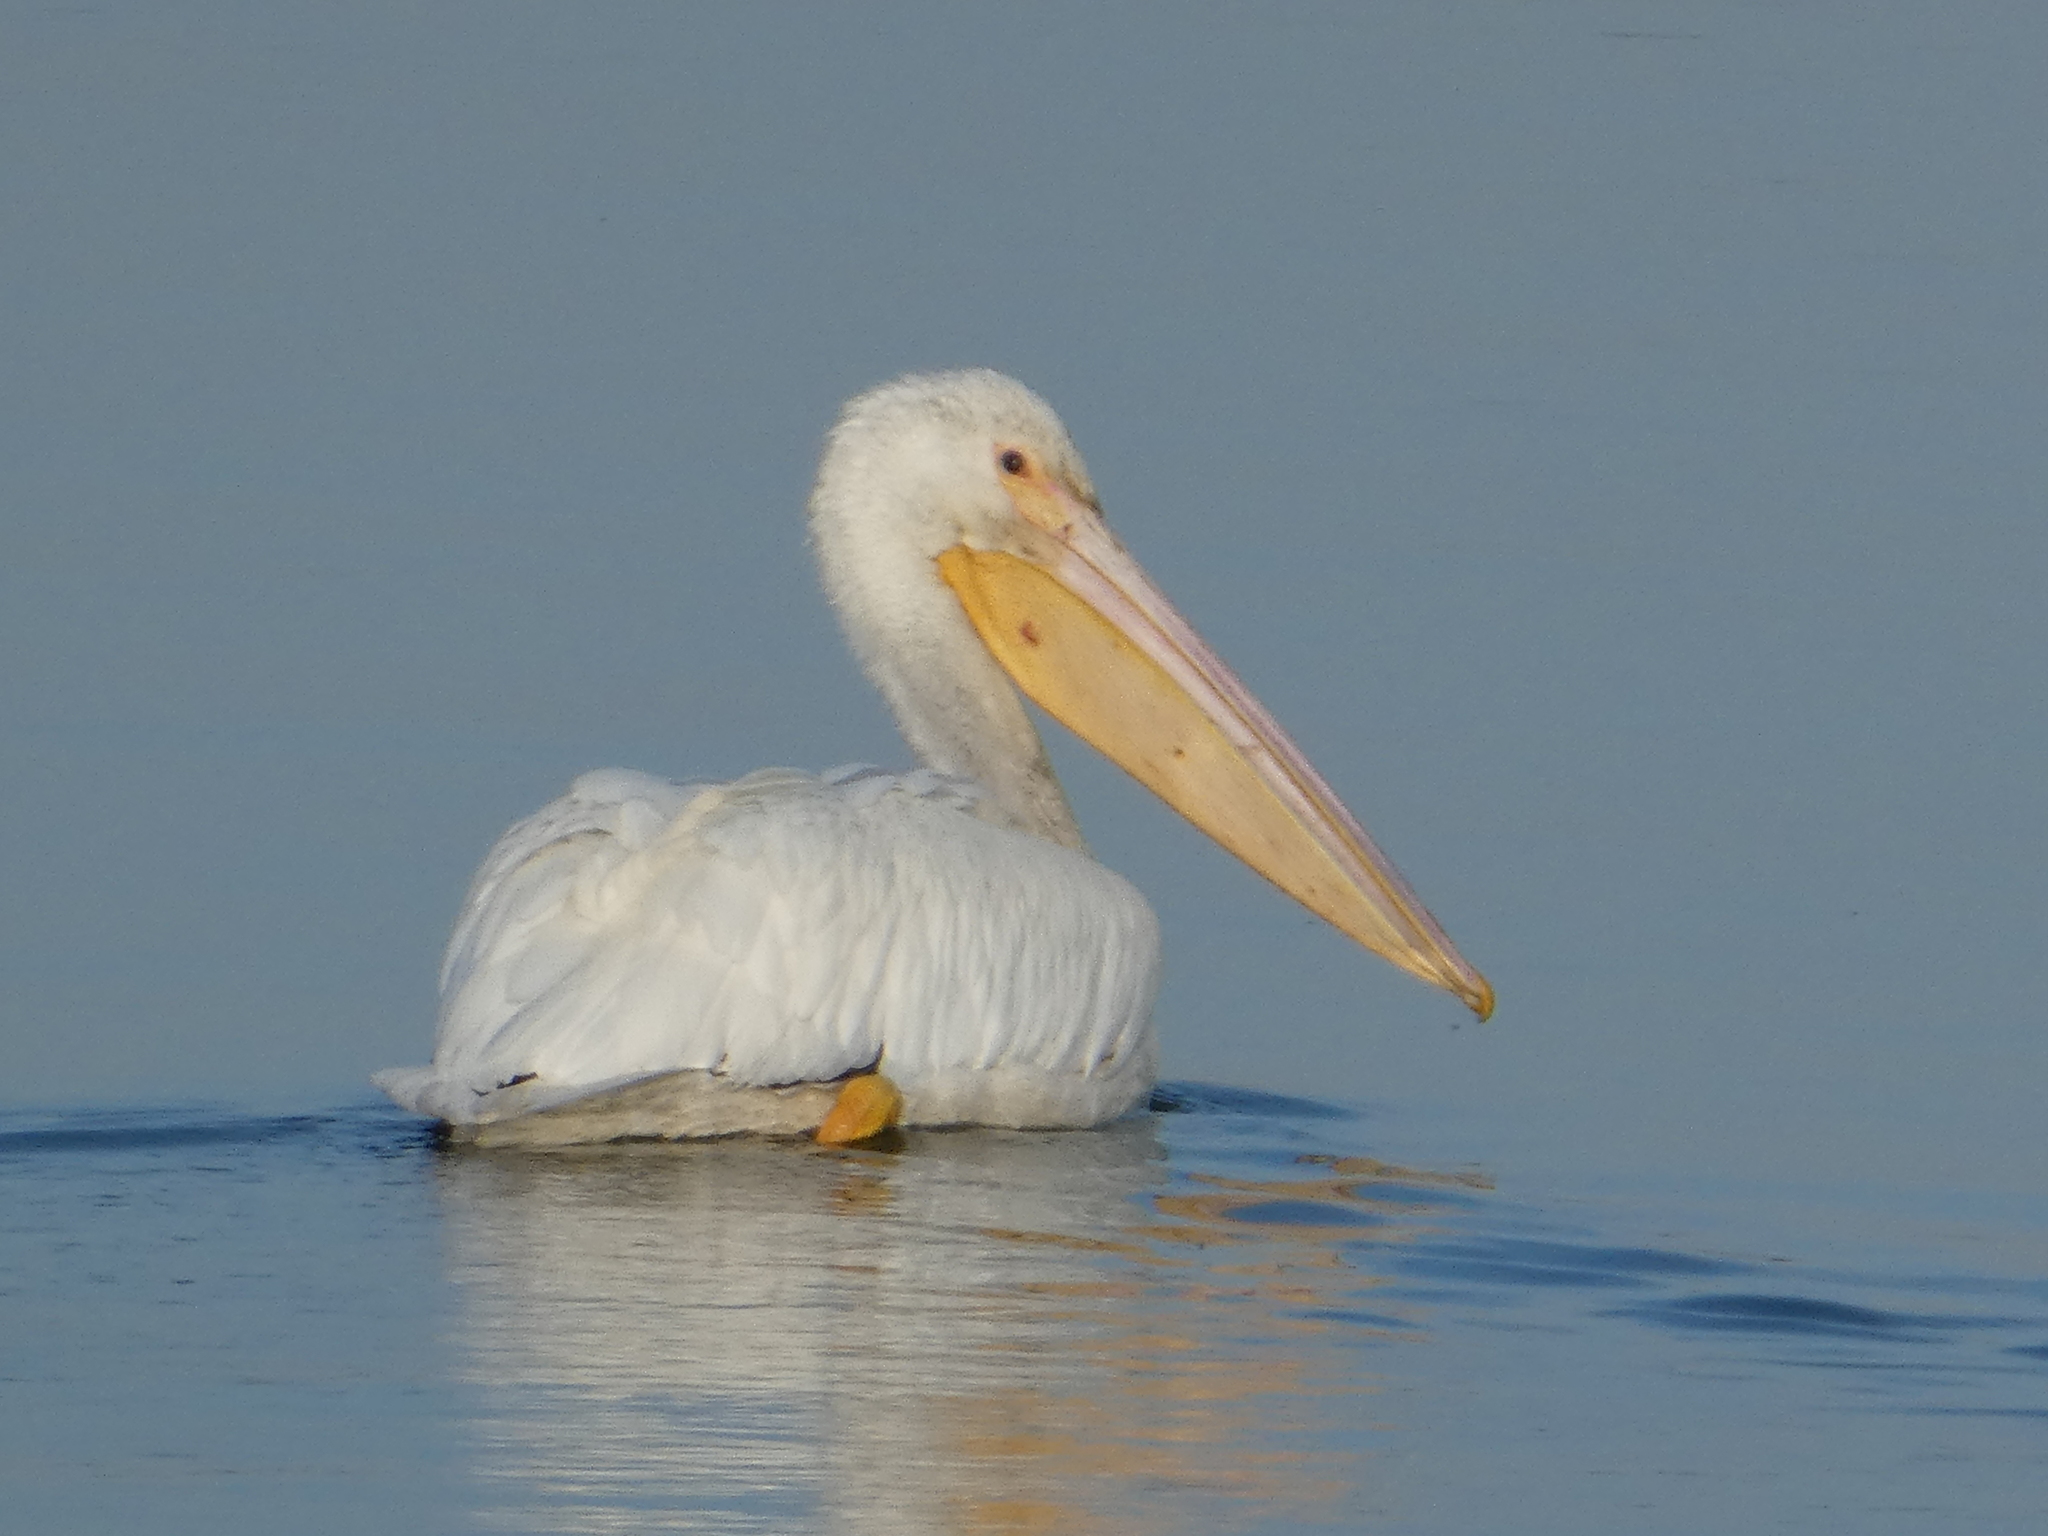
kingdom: Animalia
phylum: Chordata
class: Aves
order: Pelecaniformes
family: Pelecanidae
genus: Pelecanus
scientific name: Pelecanus erythrorhynchos
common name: American white pelican
